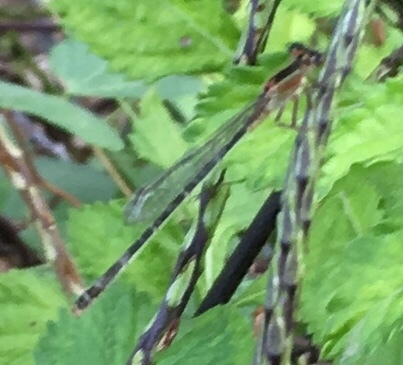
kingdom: Animalia
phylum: Arthropoda
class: Insecta
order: Odonata
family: Coenagrionidae
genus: Ischnura
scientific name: Ischnura ramburii
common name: Rambur's forktail
